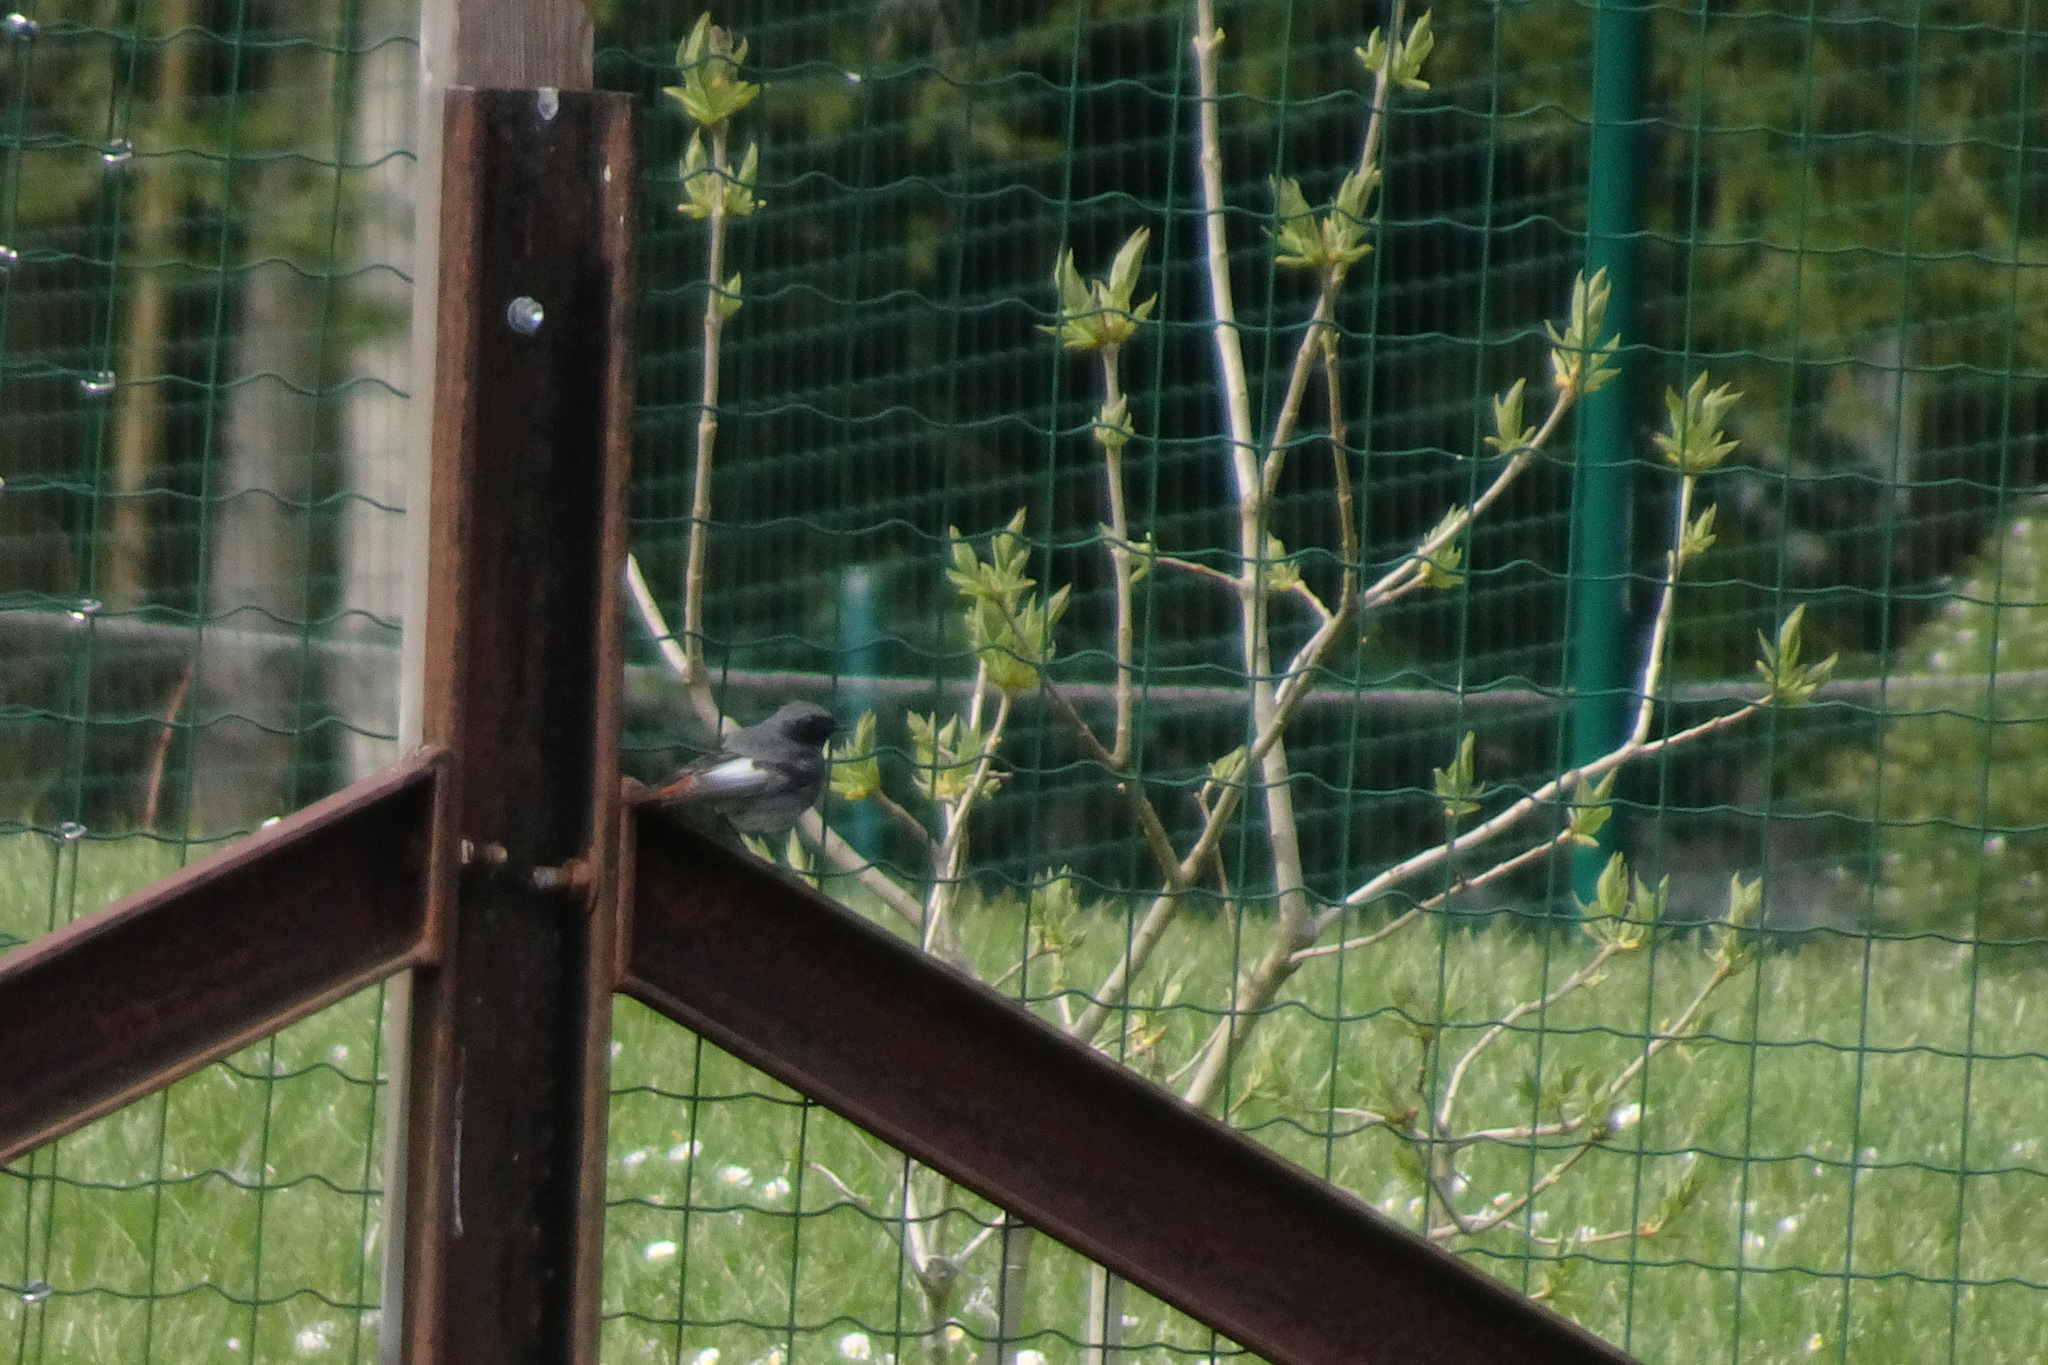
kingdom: Animalia
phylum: Chordata
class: Aves
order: Passeriformes
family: Muscicapidae
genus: Phoenicurus
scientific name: Phoenicurus ochruros
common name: Black redstart
